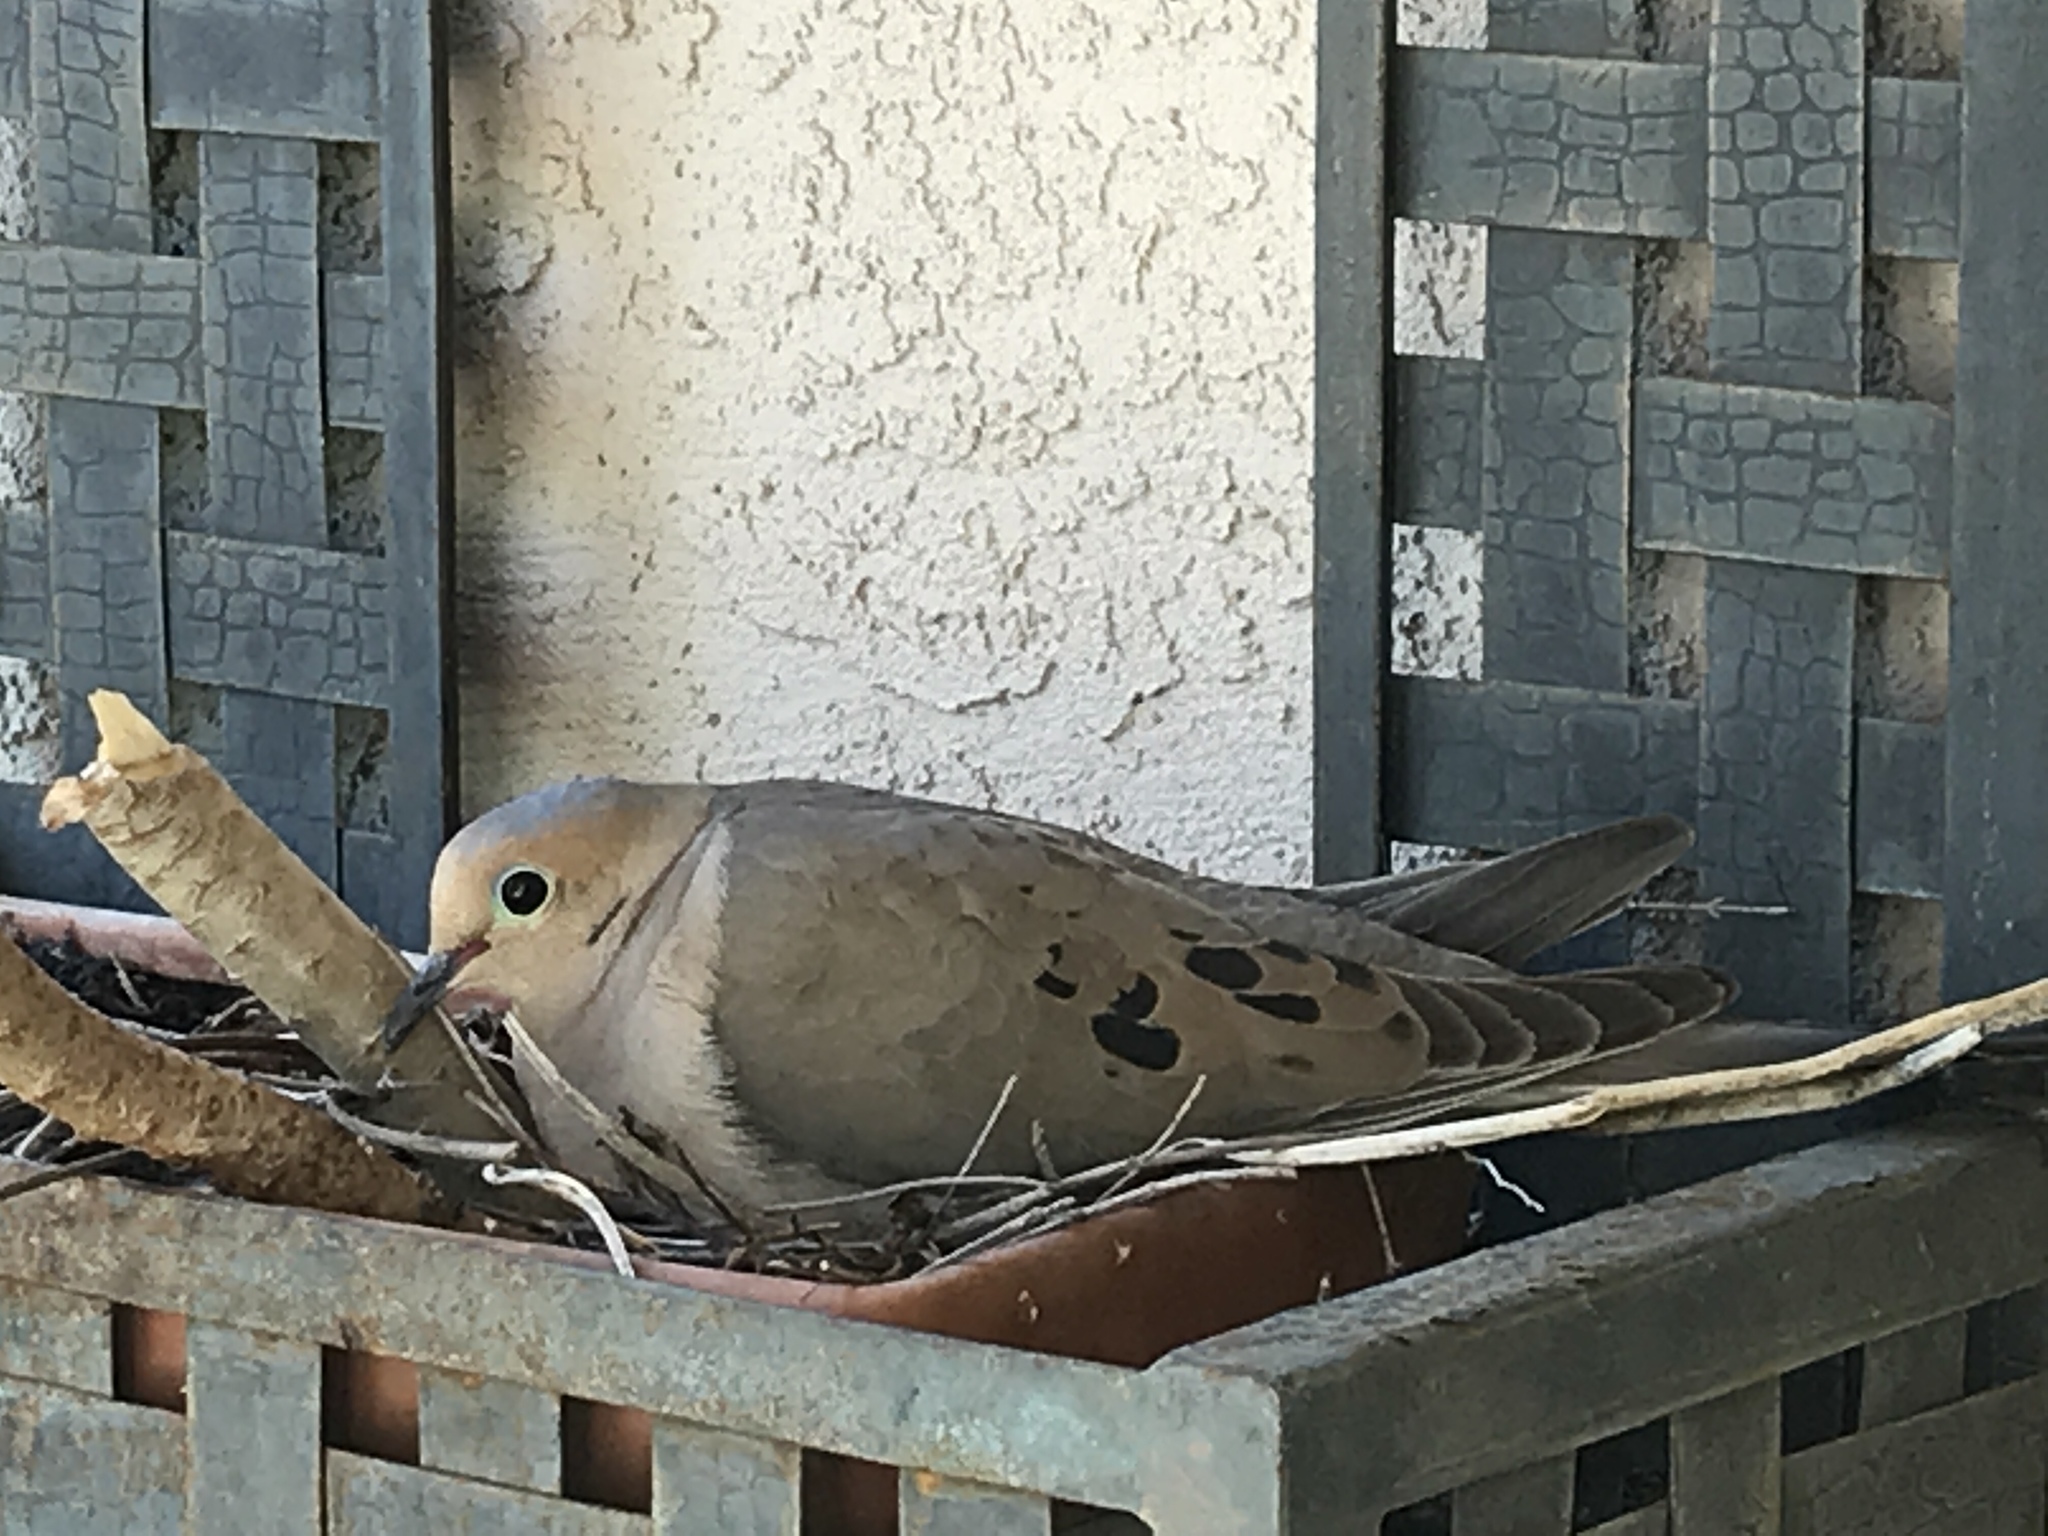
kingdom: Animalia
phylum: Chordata
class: Aves
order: Columbiformes
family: Columbidae
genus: Zenaida
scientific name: Zenaida macroura
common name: Mourning dove
